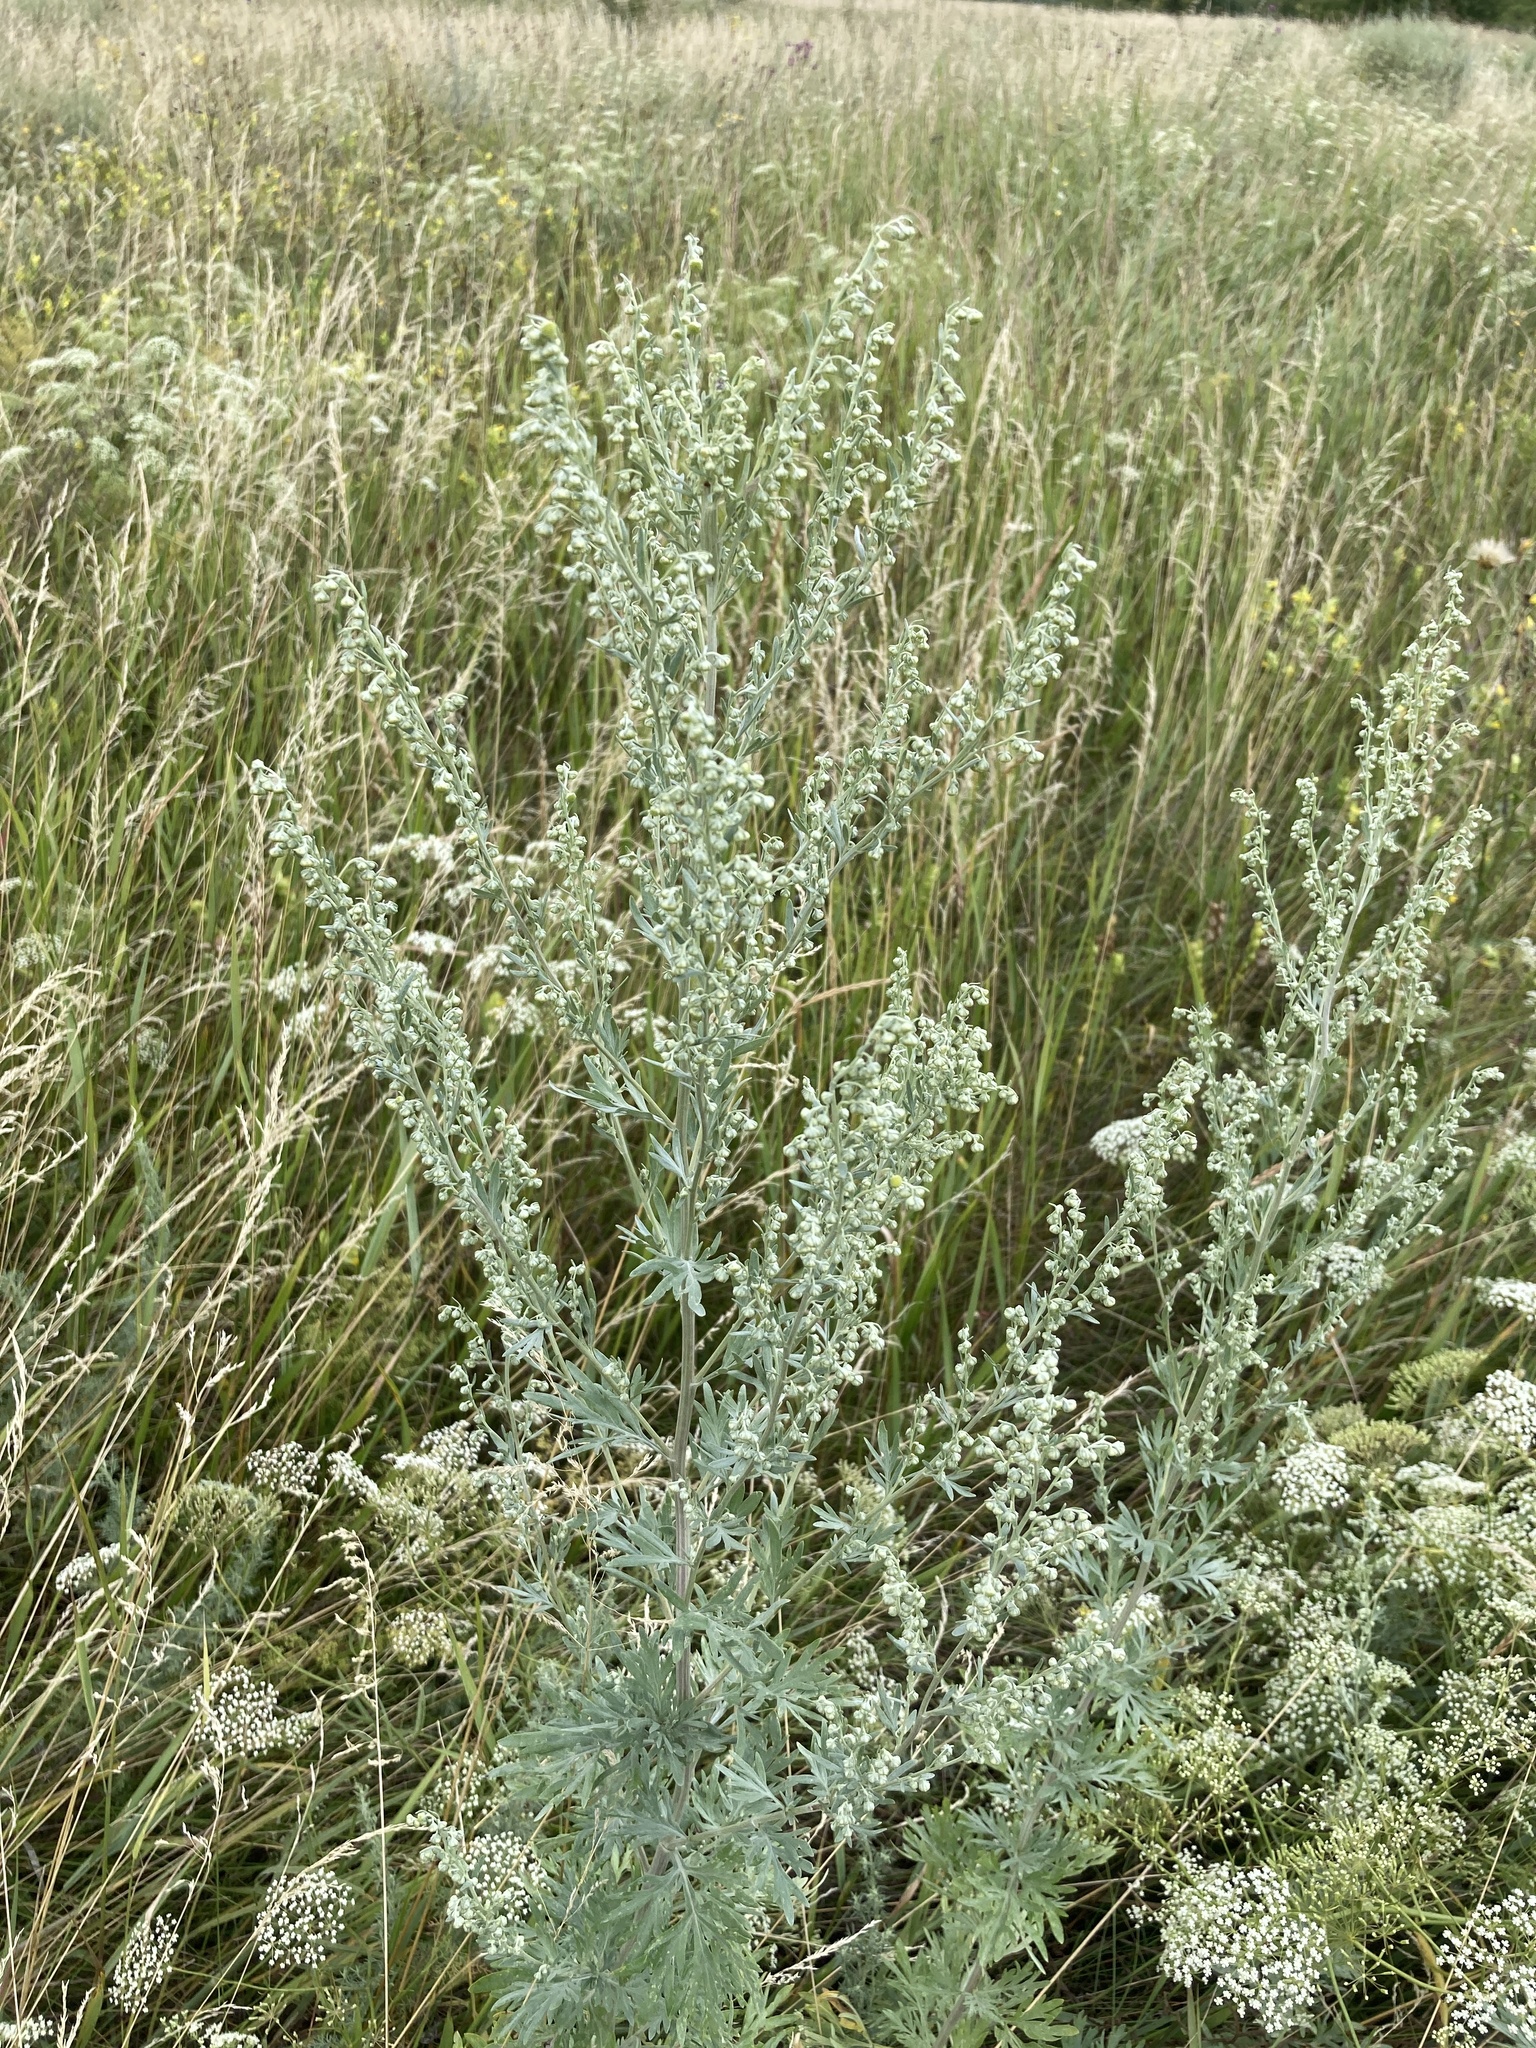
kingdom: Plantae
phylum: Tracheophyta
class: Magnoliopsida
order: Asterales
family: Asteraceae
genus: Artemisia
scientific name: Artemisia absinthium
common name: Wormwood
